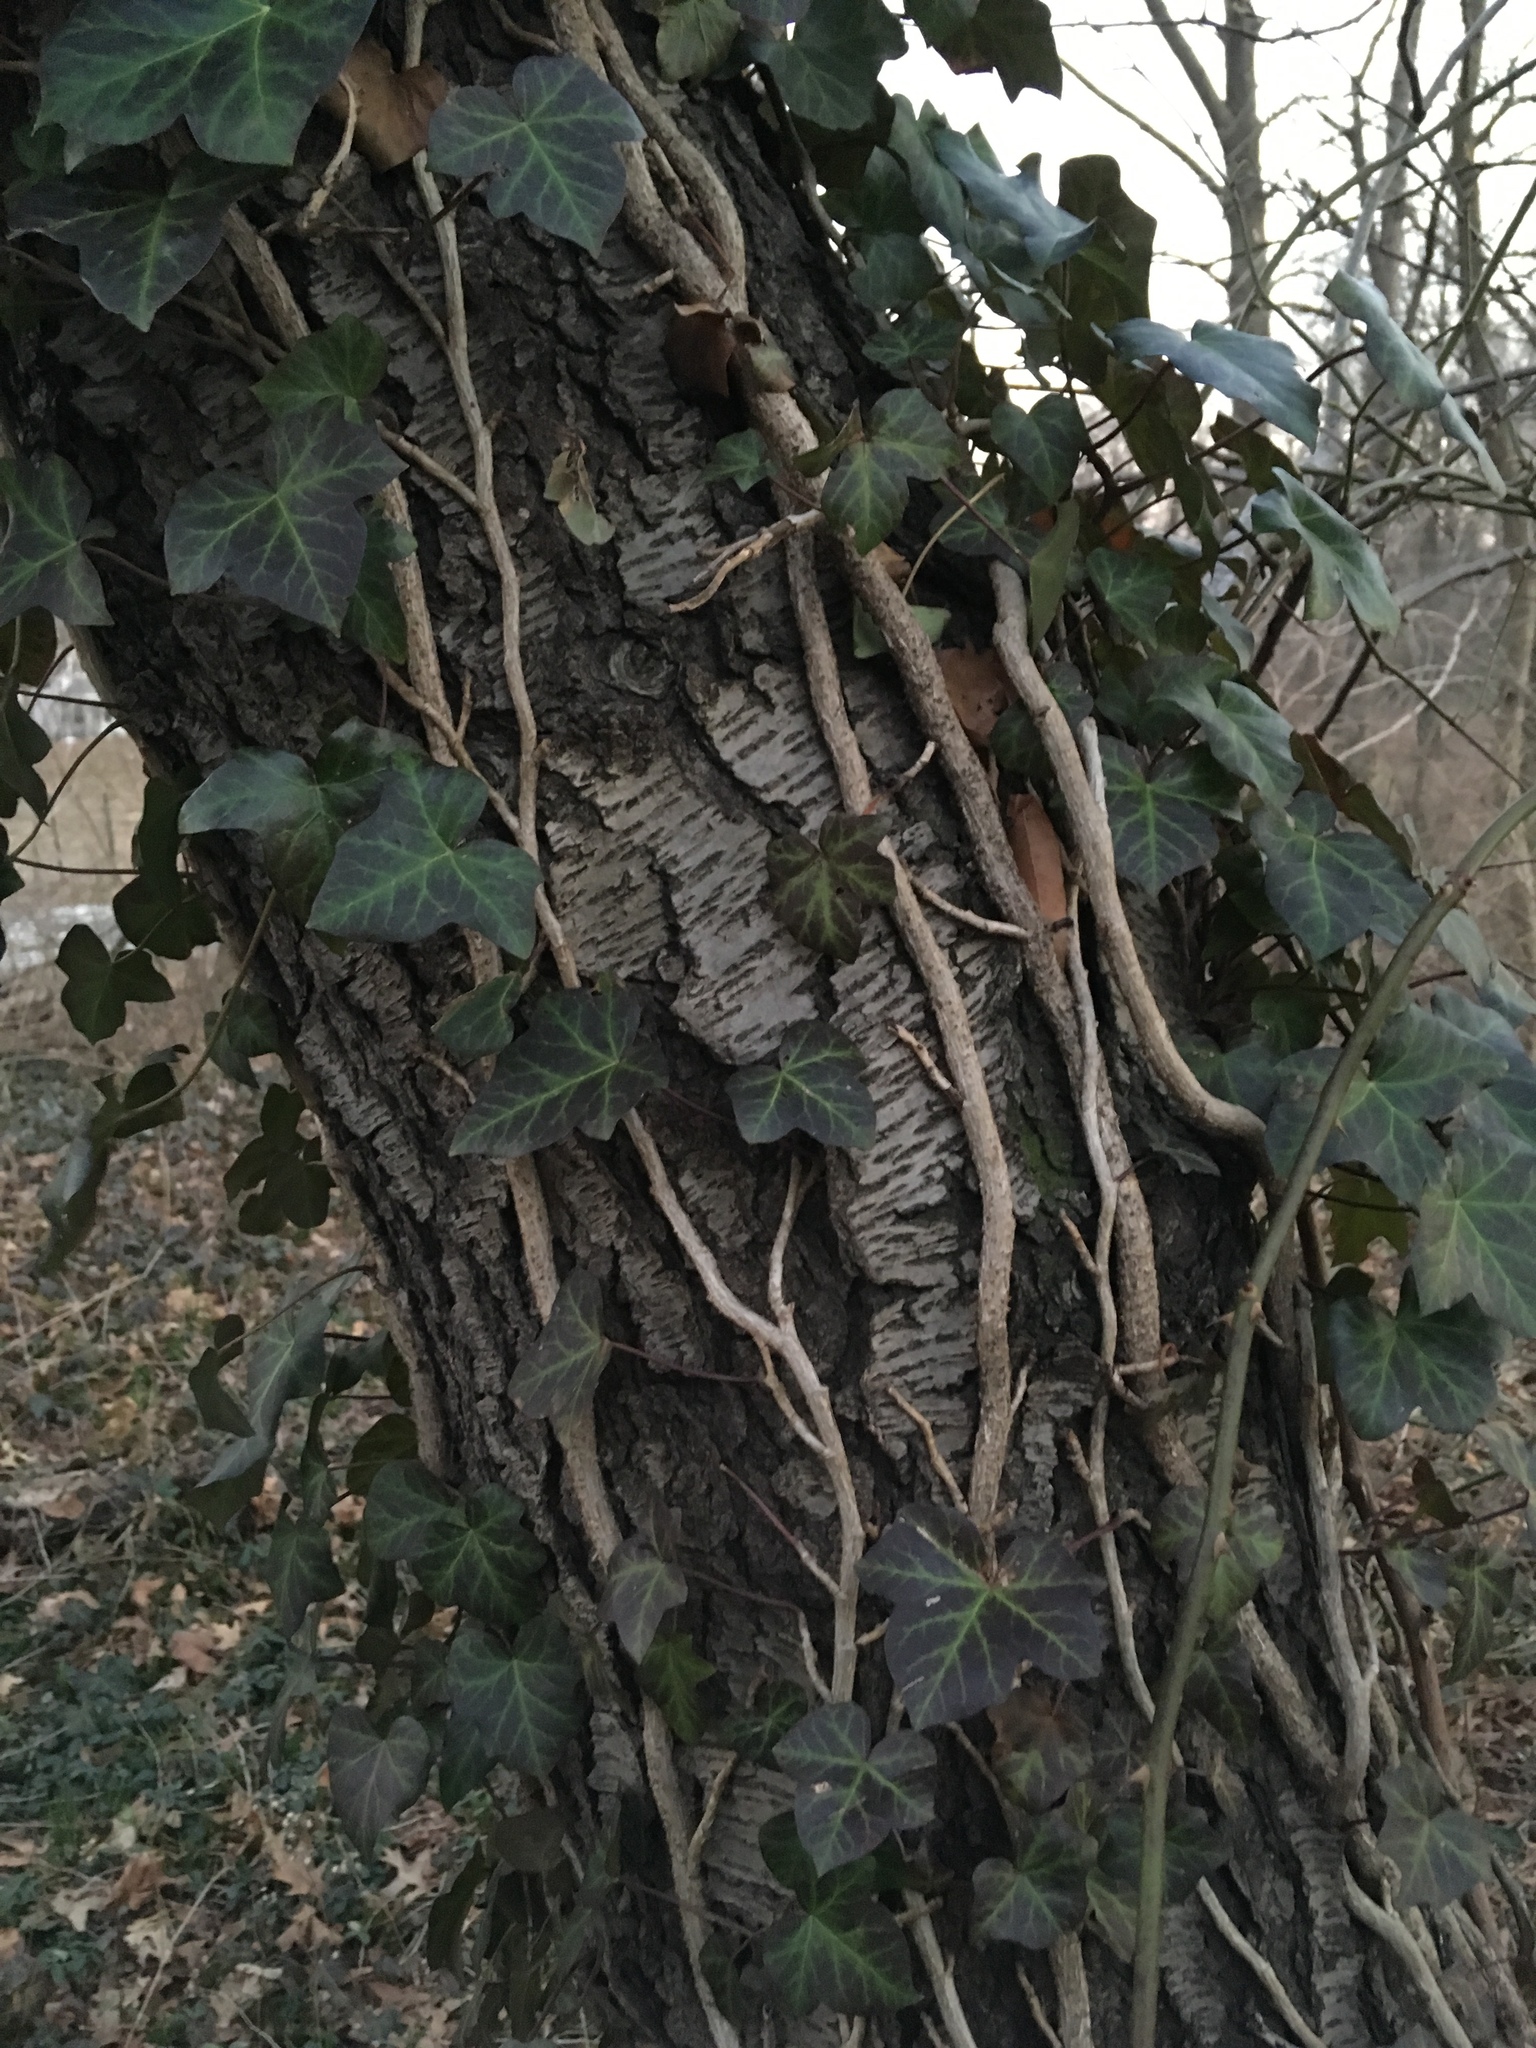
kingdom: Plantae
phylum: Tracheophyta
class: Magnoliopsida
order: Apiales
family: Araliaceae
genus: Hedera
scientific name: Hedera helix
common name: Ivy
